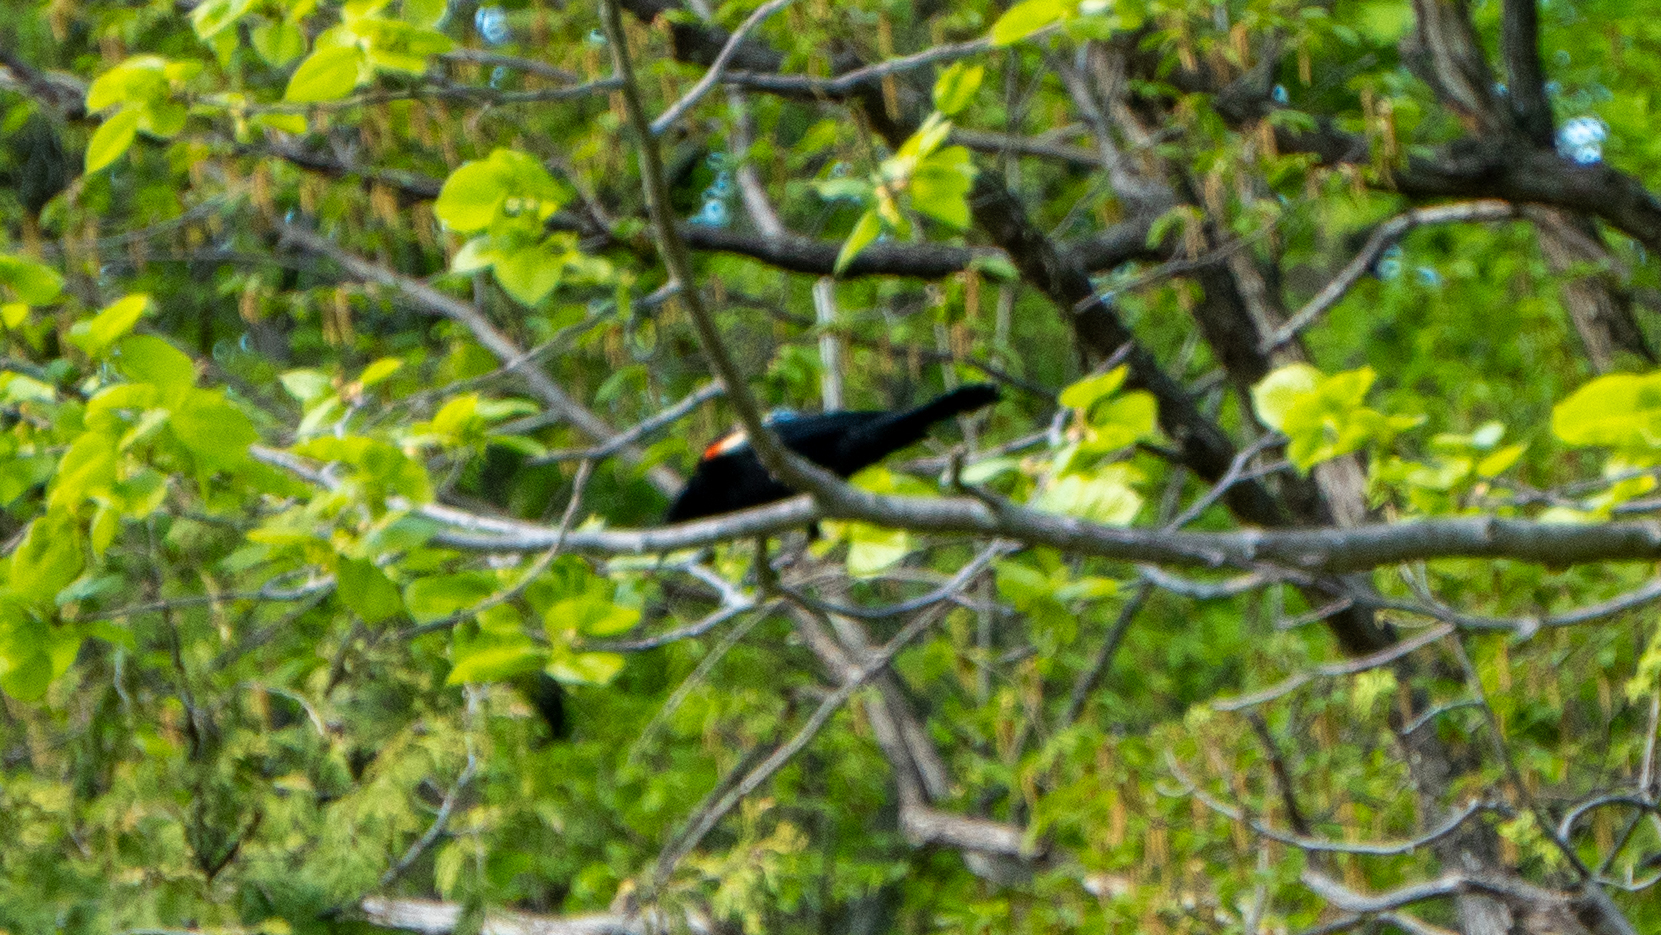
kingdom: Animalia
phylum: Chordata
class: Aves
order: Passeriformes
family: Icteridae
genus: Agelaius
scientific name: Agelaius phoeniceus
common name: Red-winged blackbird
